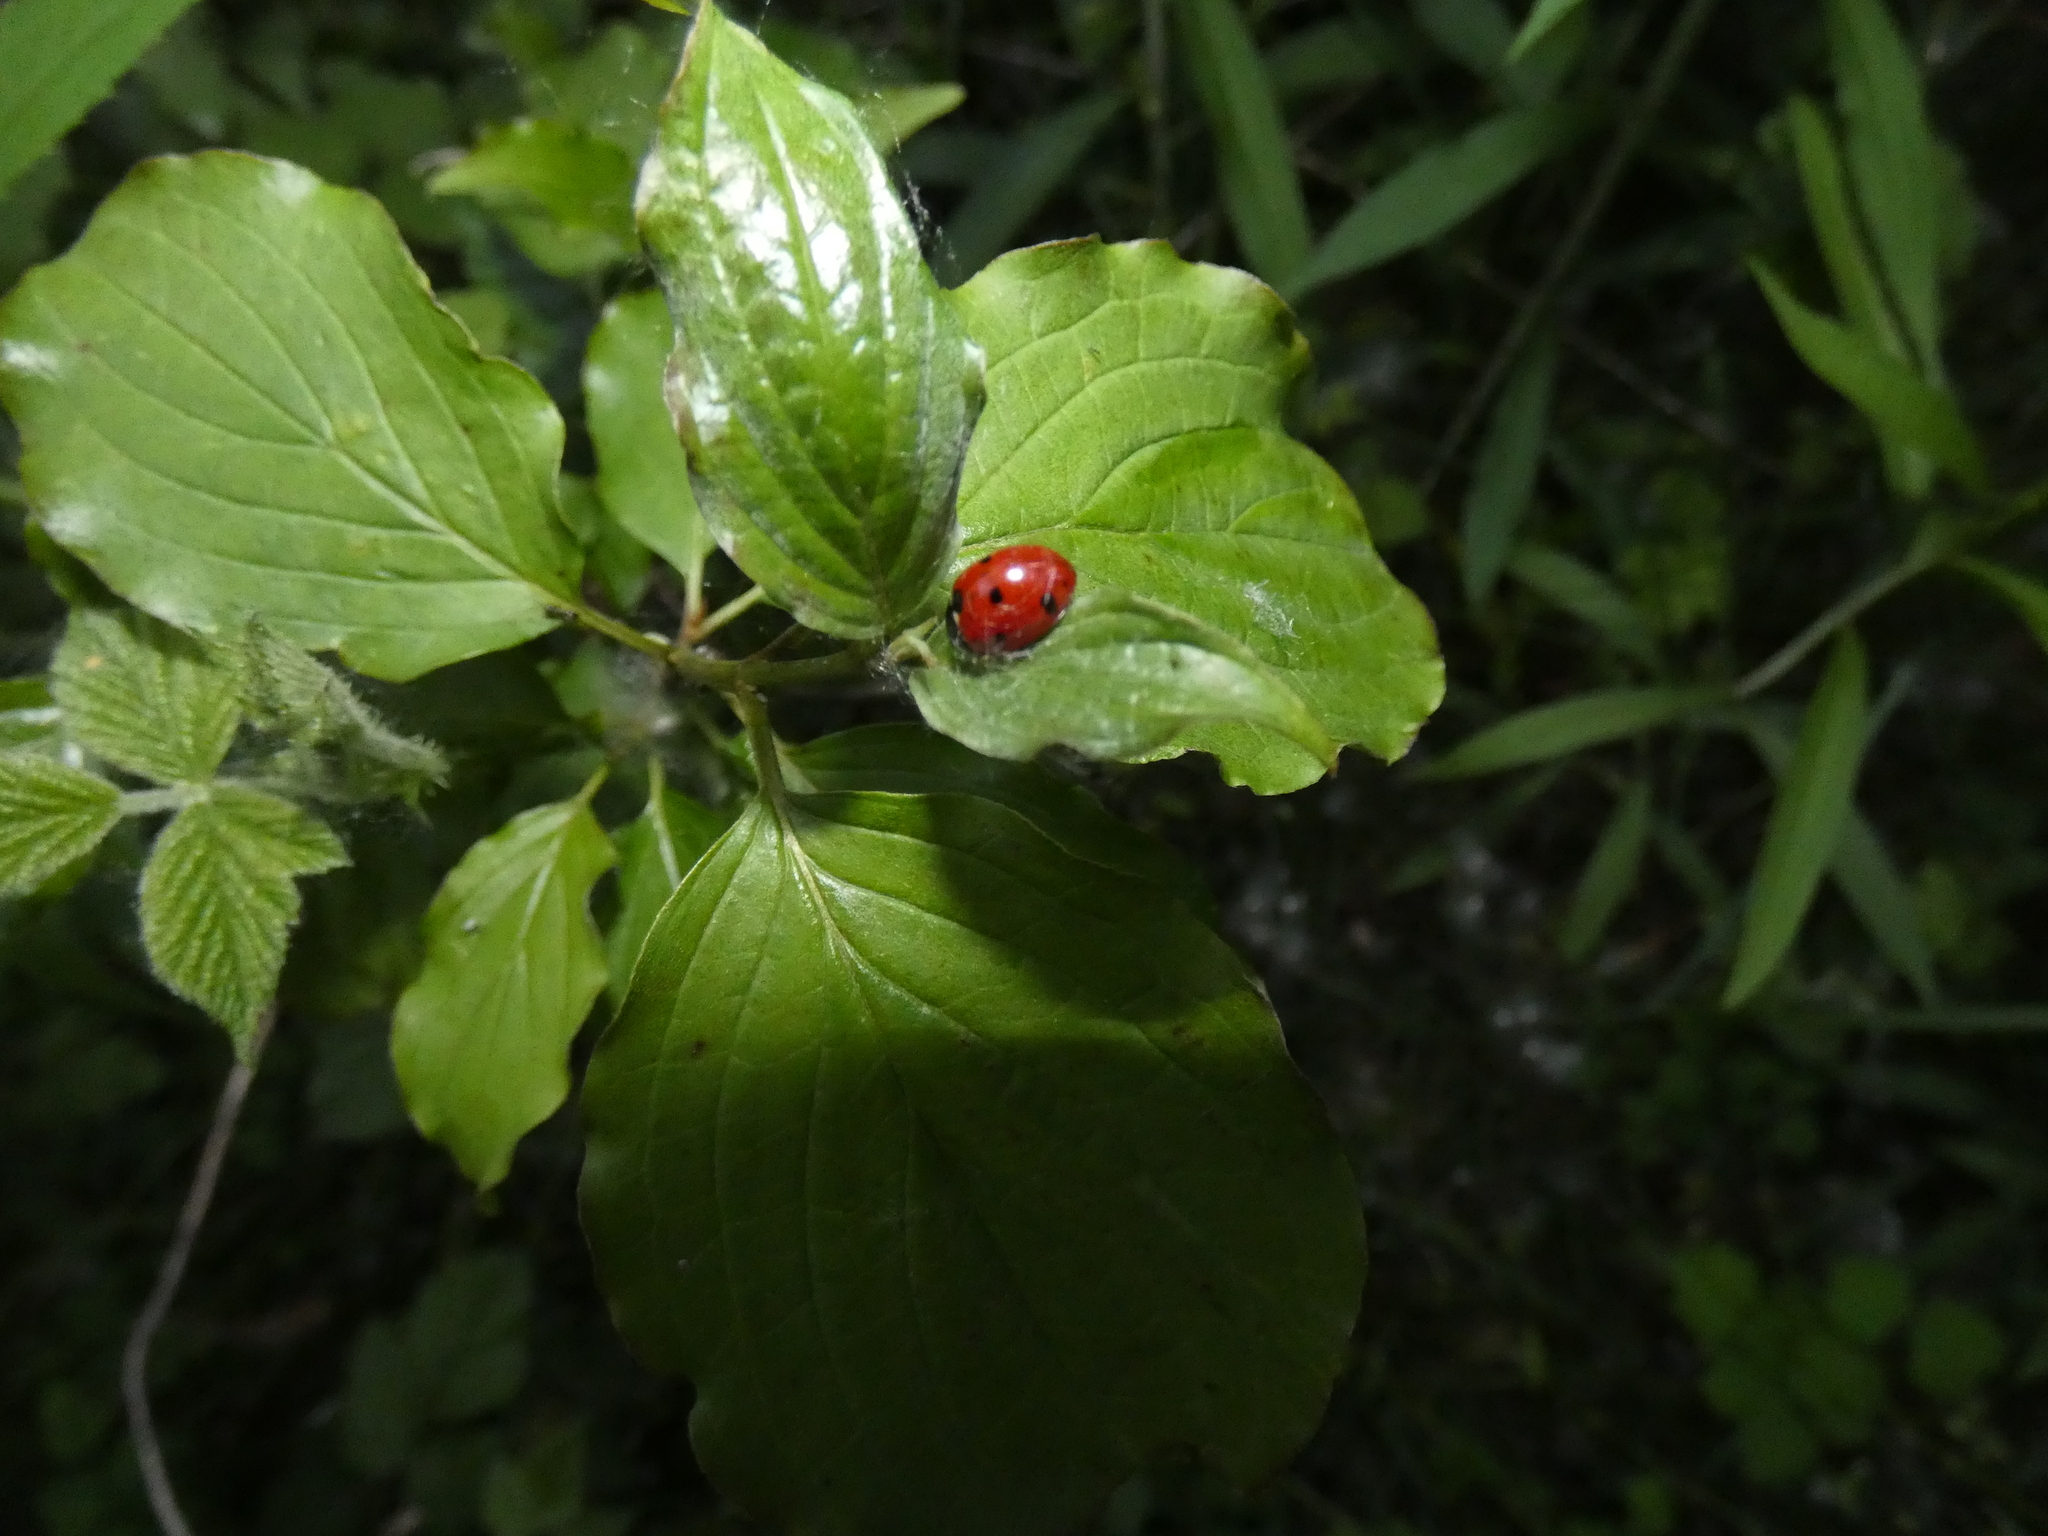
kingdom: Animalia
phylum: Arthropoda
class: Insecta
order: Coleoptera
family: Coccinellidae
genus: Coccinella
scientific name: Coccinella septempunctata
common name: Sevenspotted lady beetle
